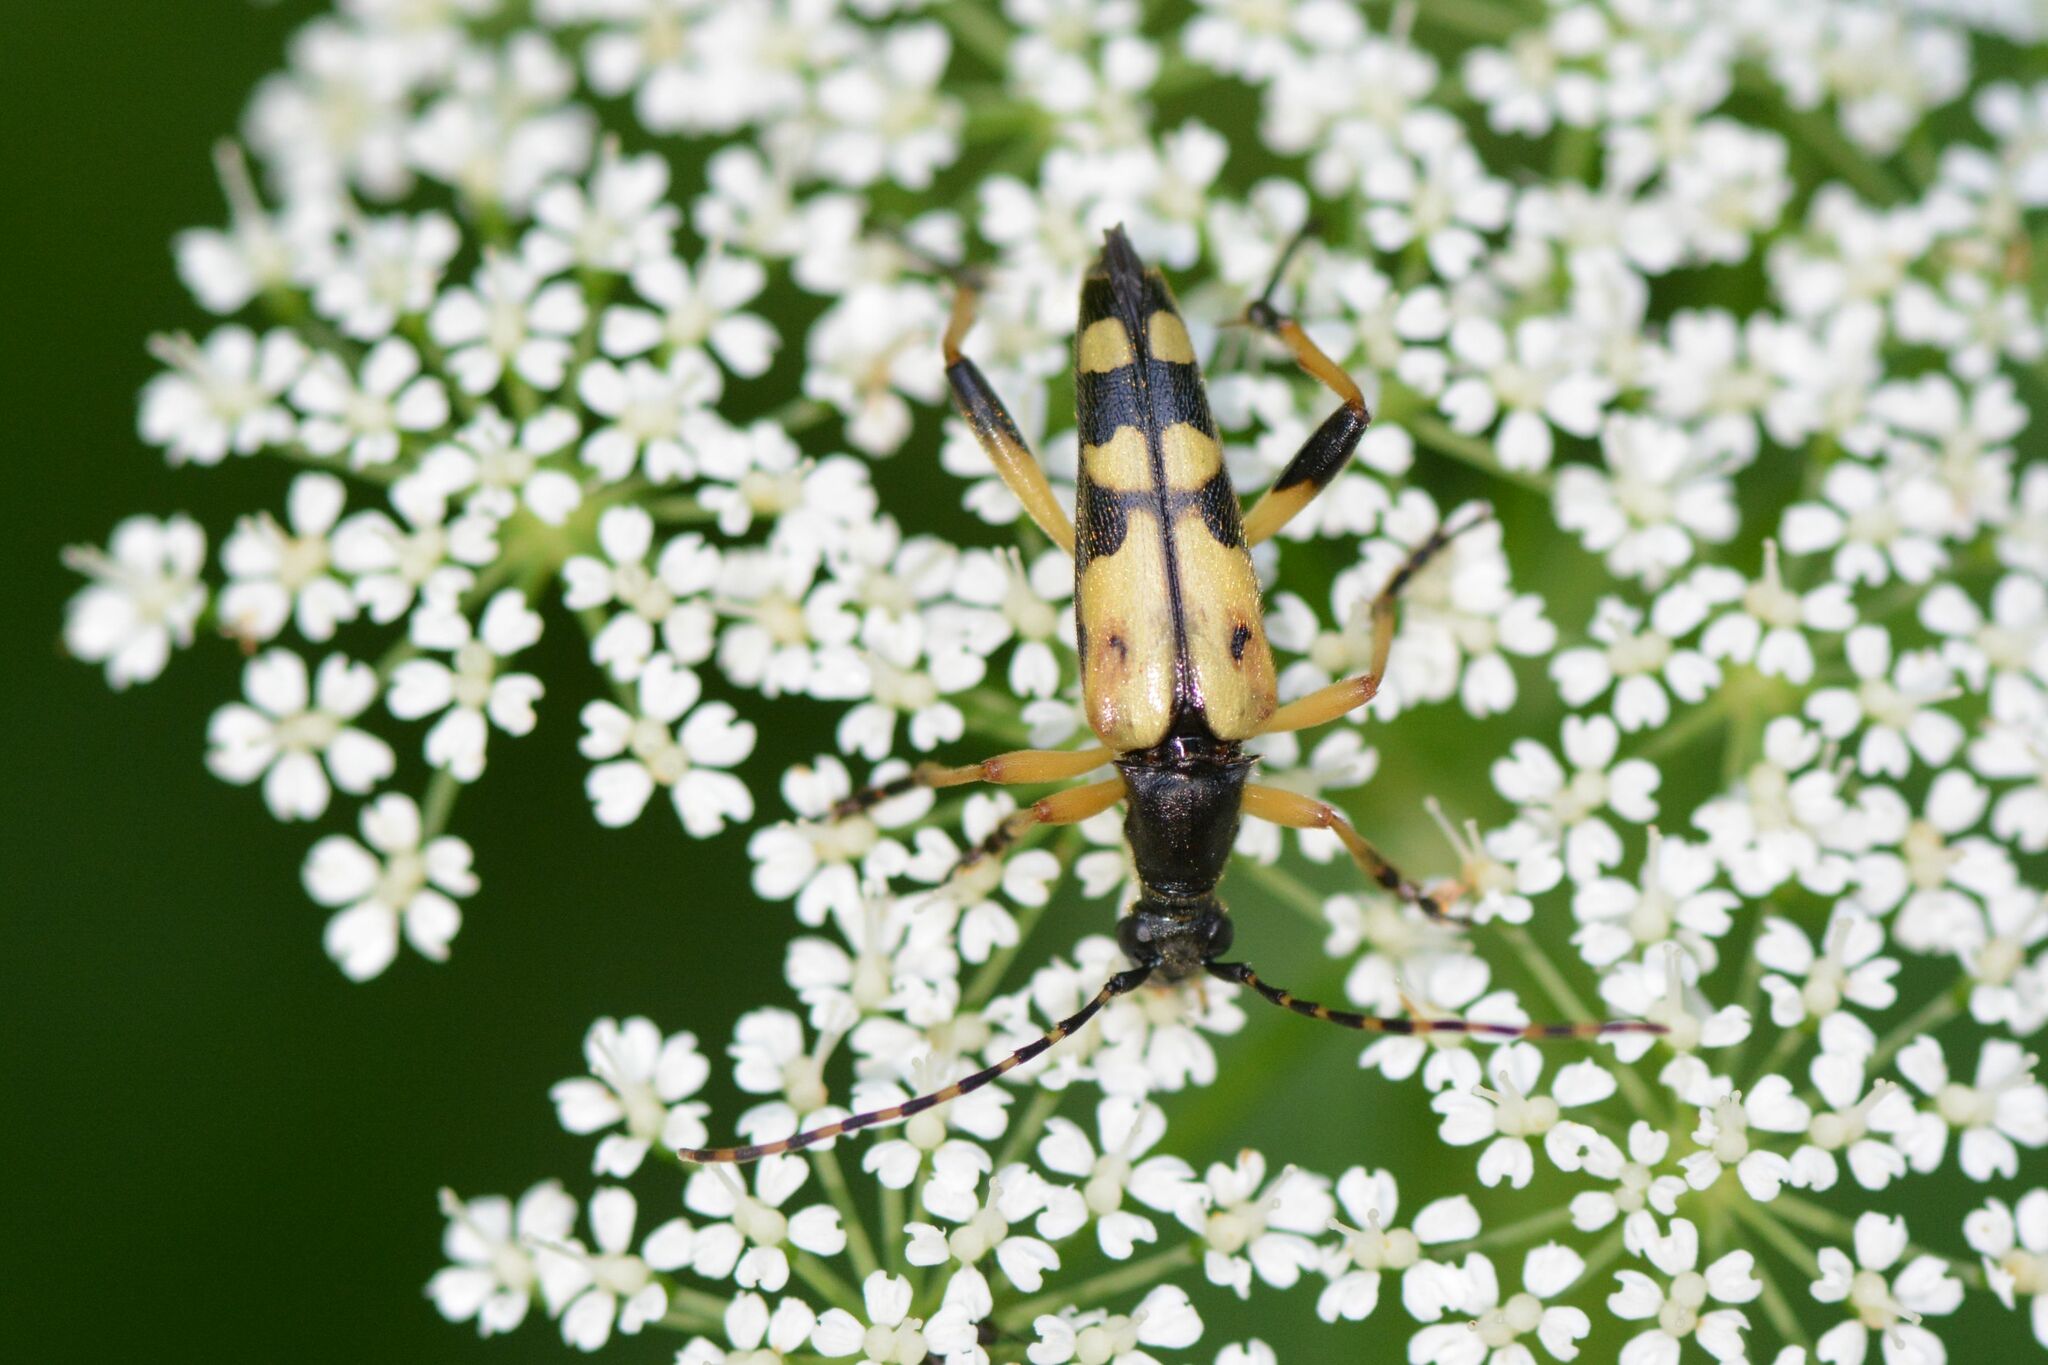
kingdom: Animalia
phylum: Arthropoda
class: Insecta
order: Coleoptera
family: Cerambycidae
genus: Rutpela
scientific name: Rutpela maculata
